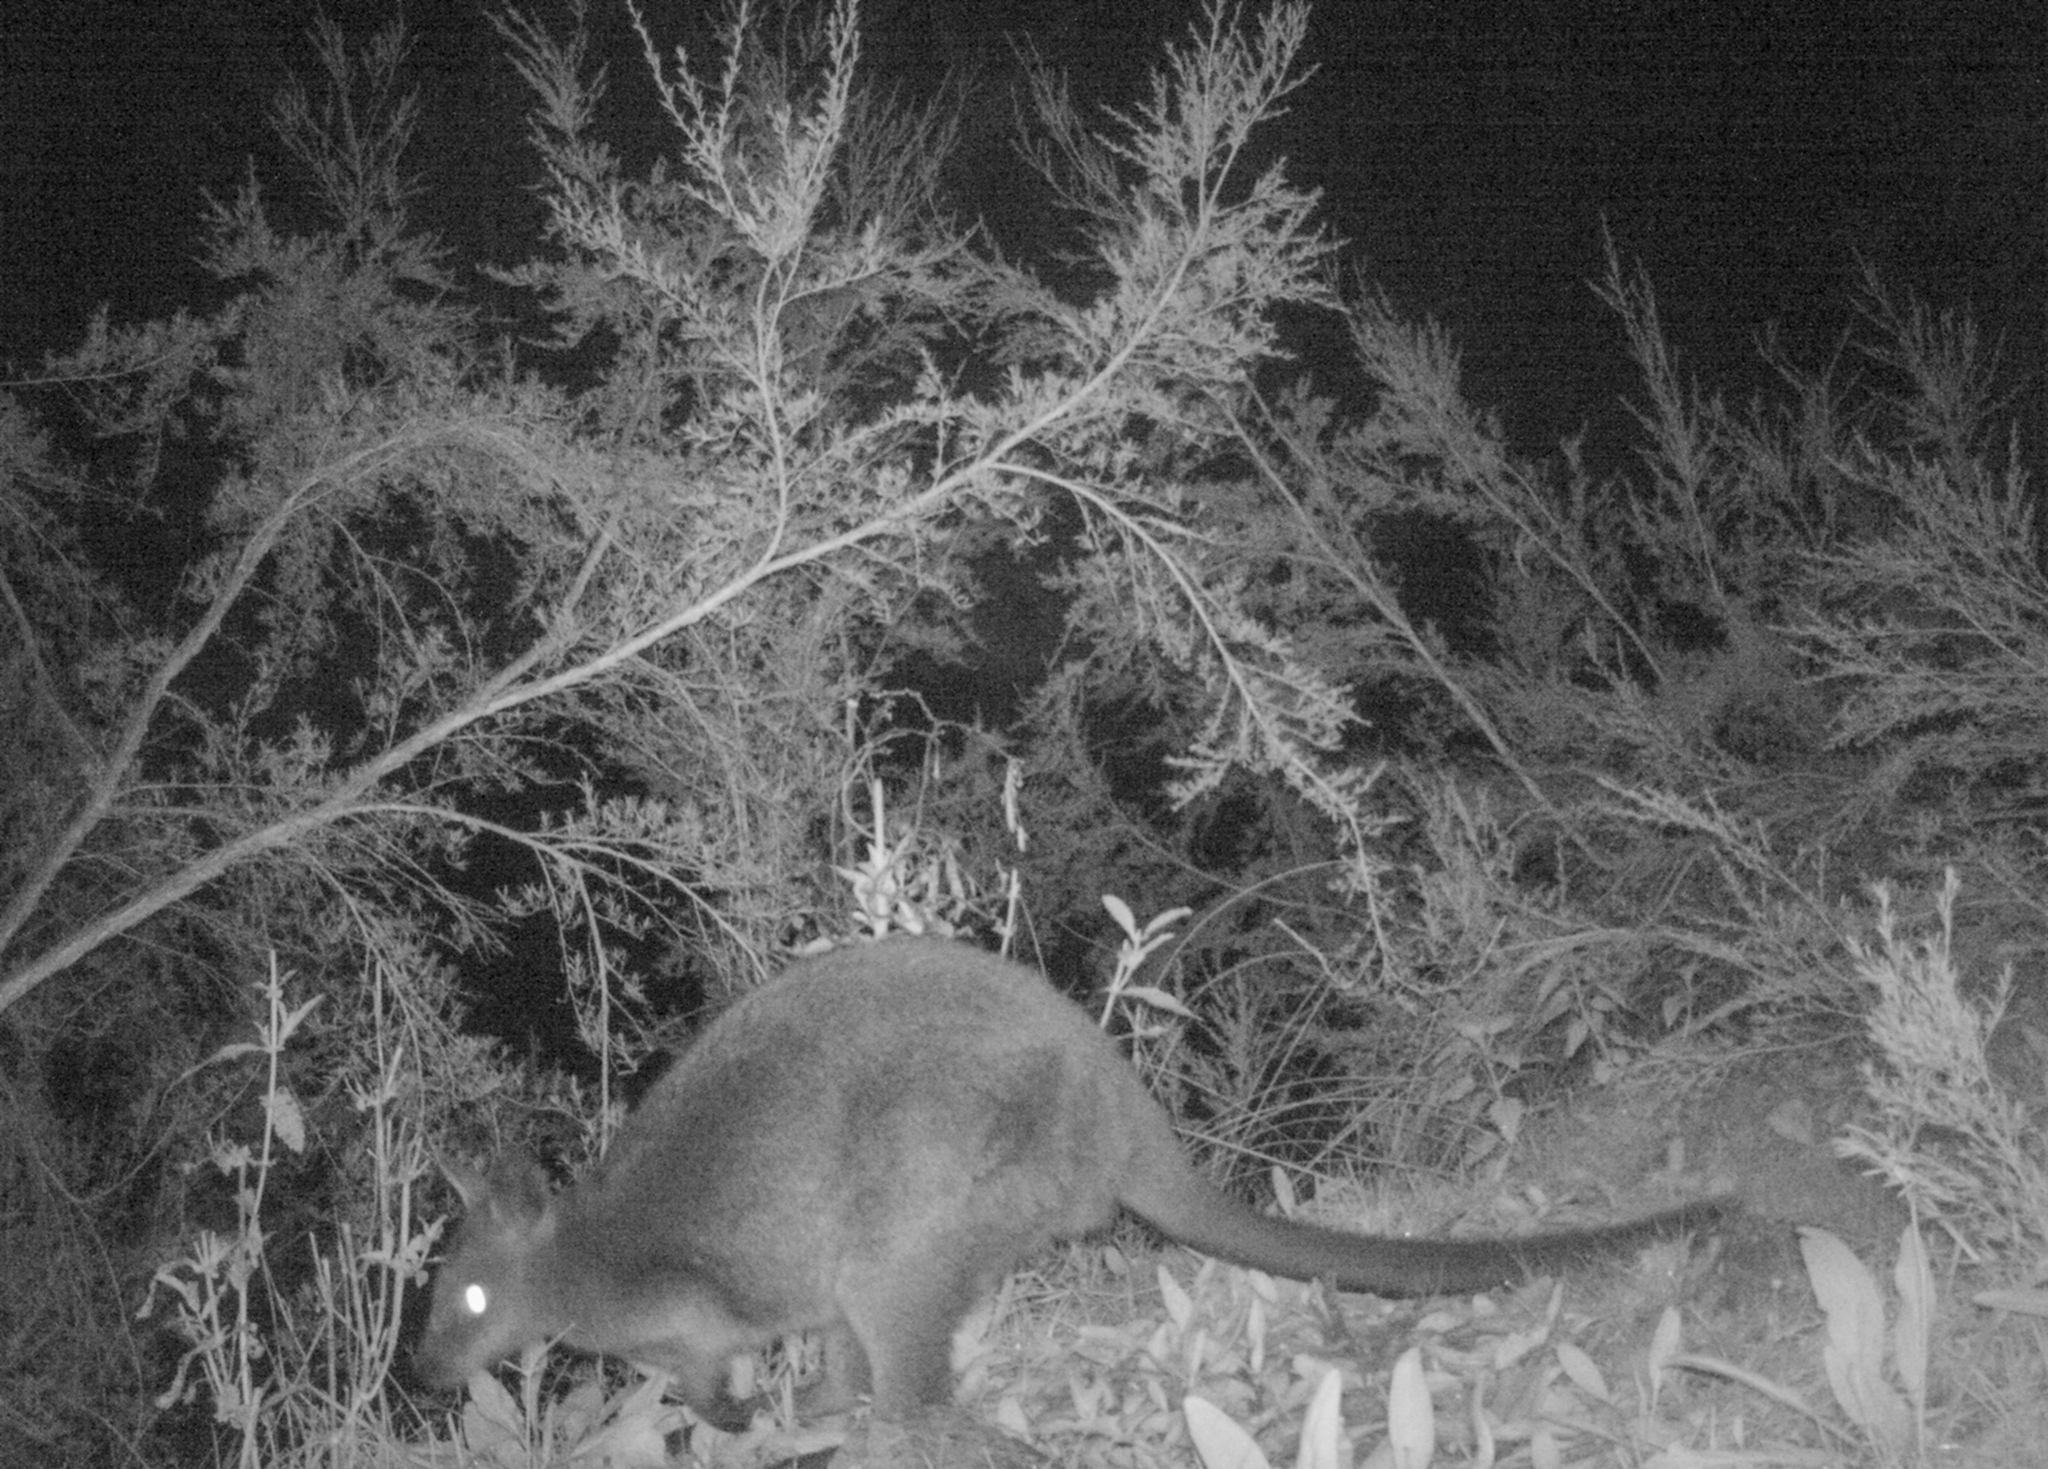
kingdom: Animalia
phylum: Chordata
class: Mammalia
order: Diprotodontia
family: Macropodidae
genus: Wallabia
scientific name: Wallabia bicolor
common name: Swamp wallaby
